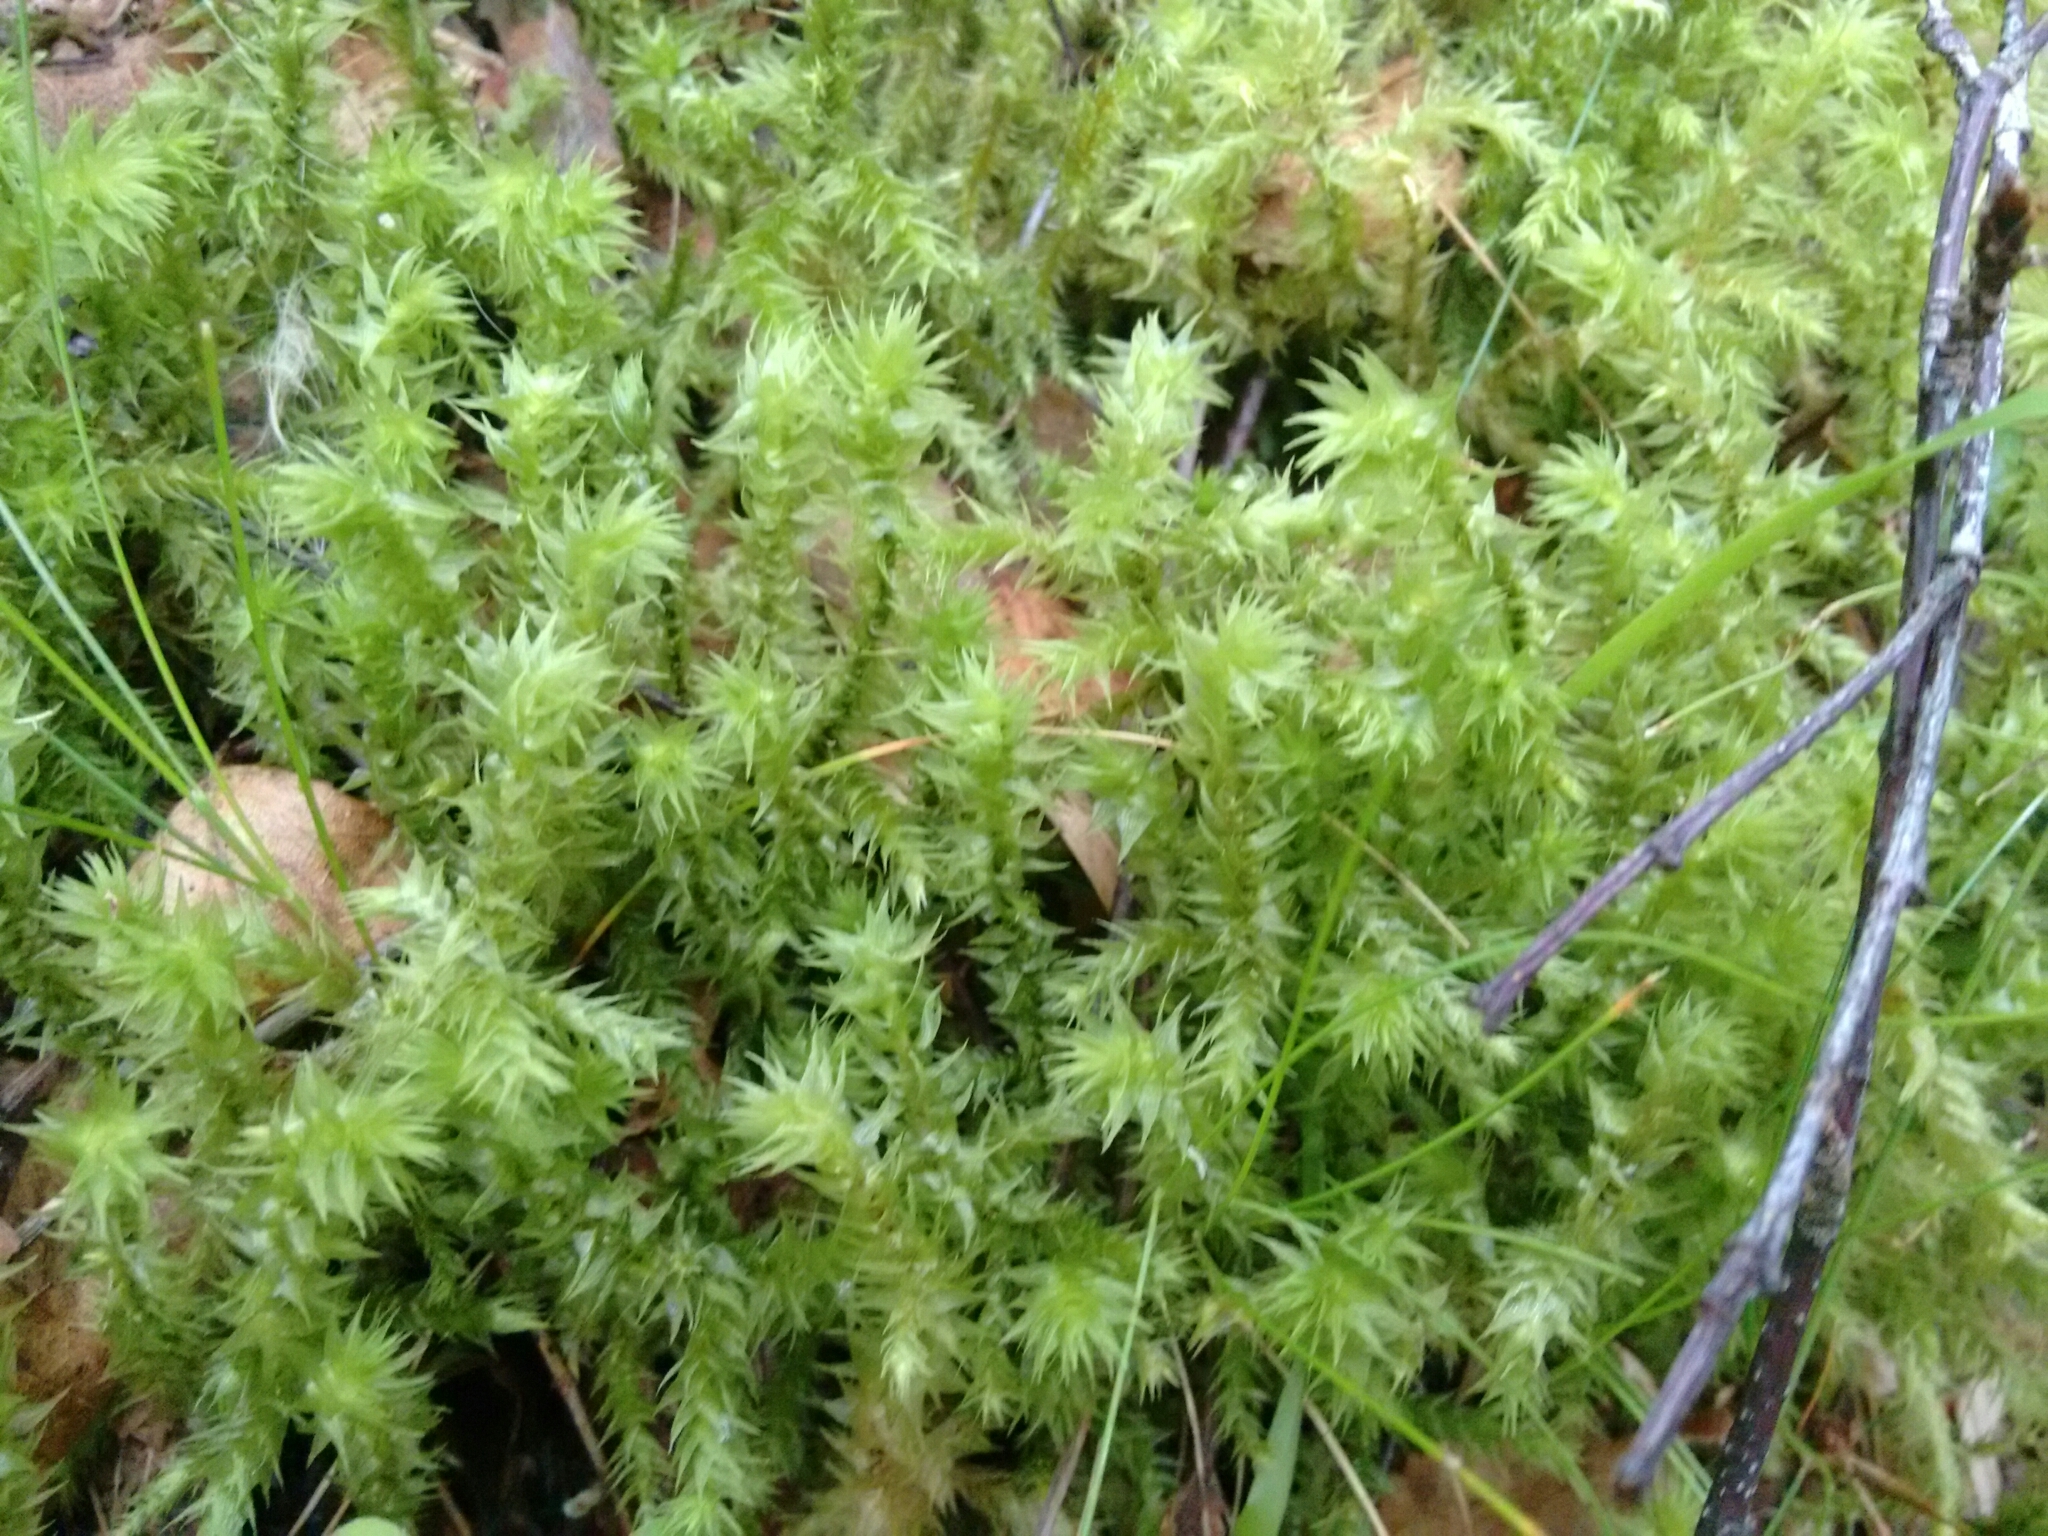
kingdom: Plantae
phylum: Bryophyta
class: Bryopsida
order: Hypnales
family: Hylocomiaceae
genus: Hylocomiadelphus
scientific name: Hylocomiadelphus triquetrus
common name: Rough goose neck moss
